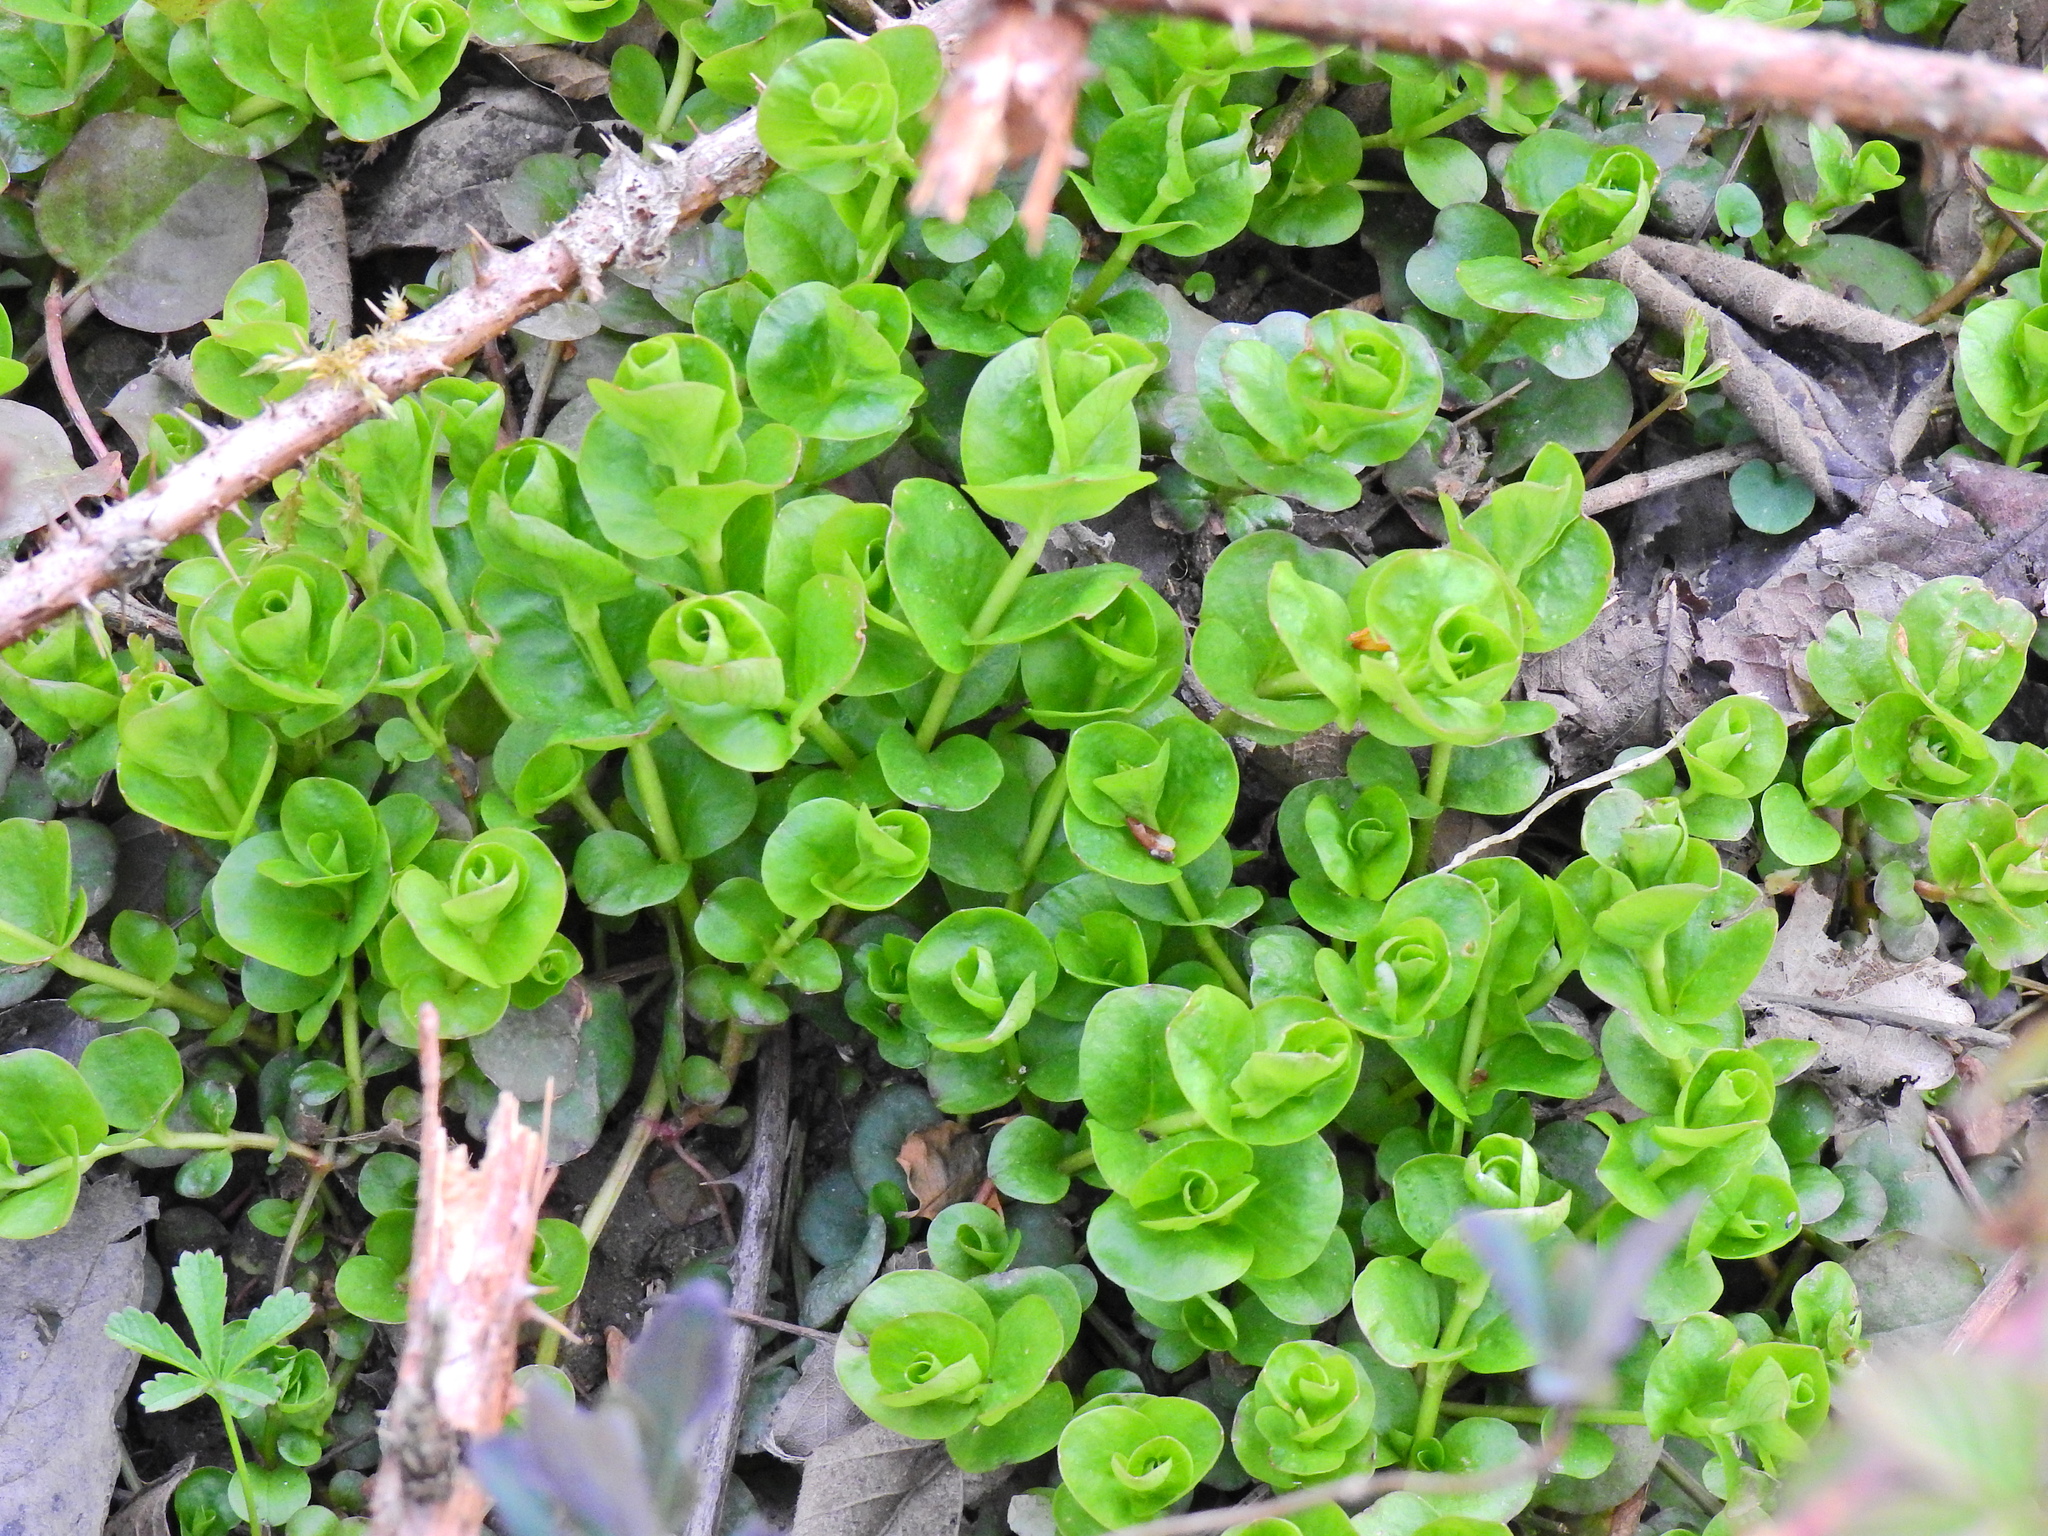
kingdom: Plantae
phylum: Tracheophyta
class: Magnoliopsida
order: Ericales
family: Primulaceae
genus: Lysimachia
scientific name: Lysimachia nummularia
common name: Moneywort
